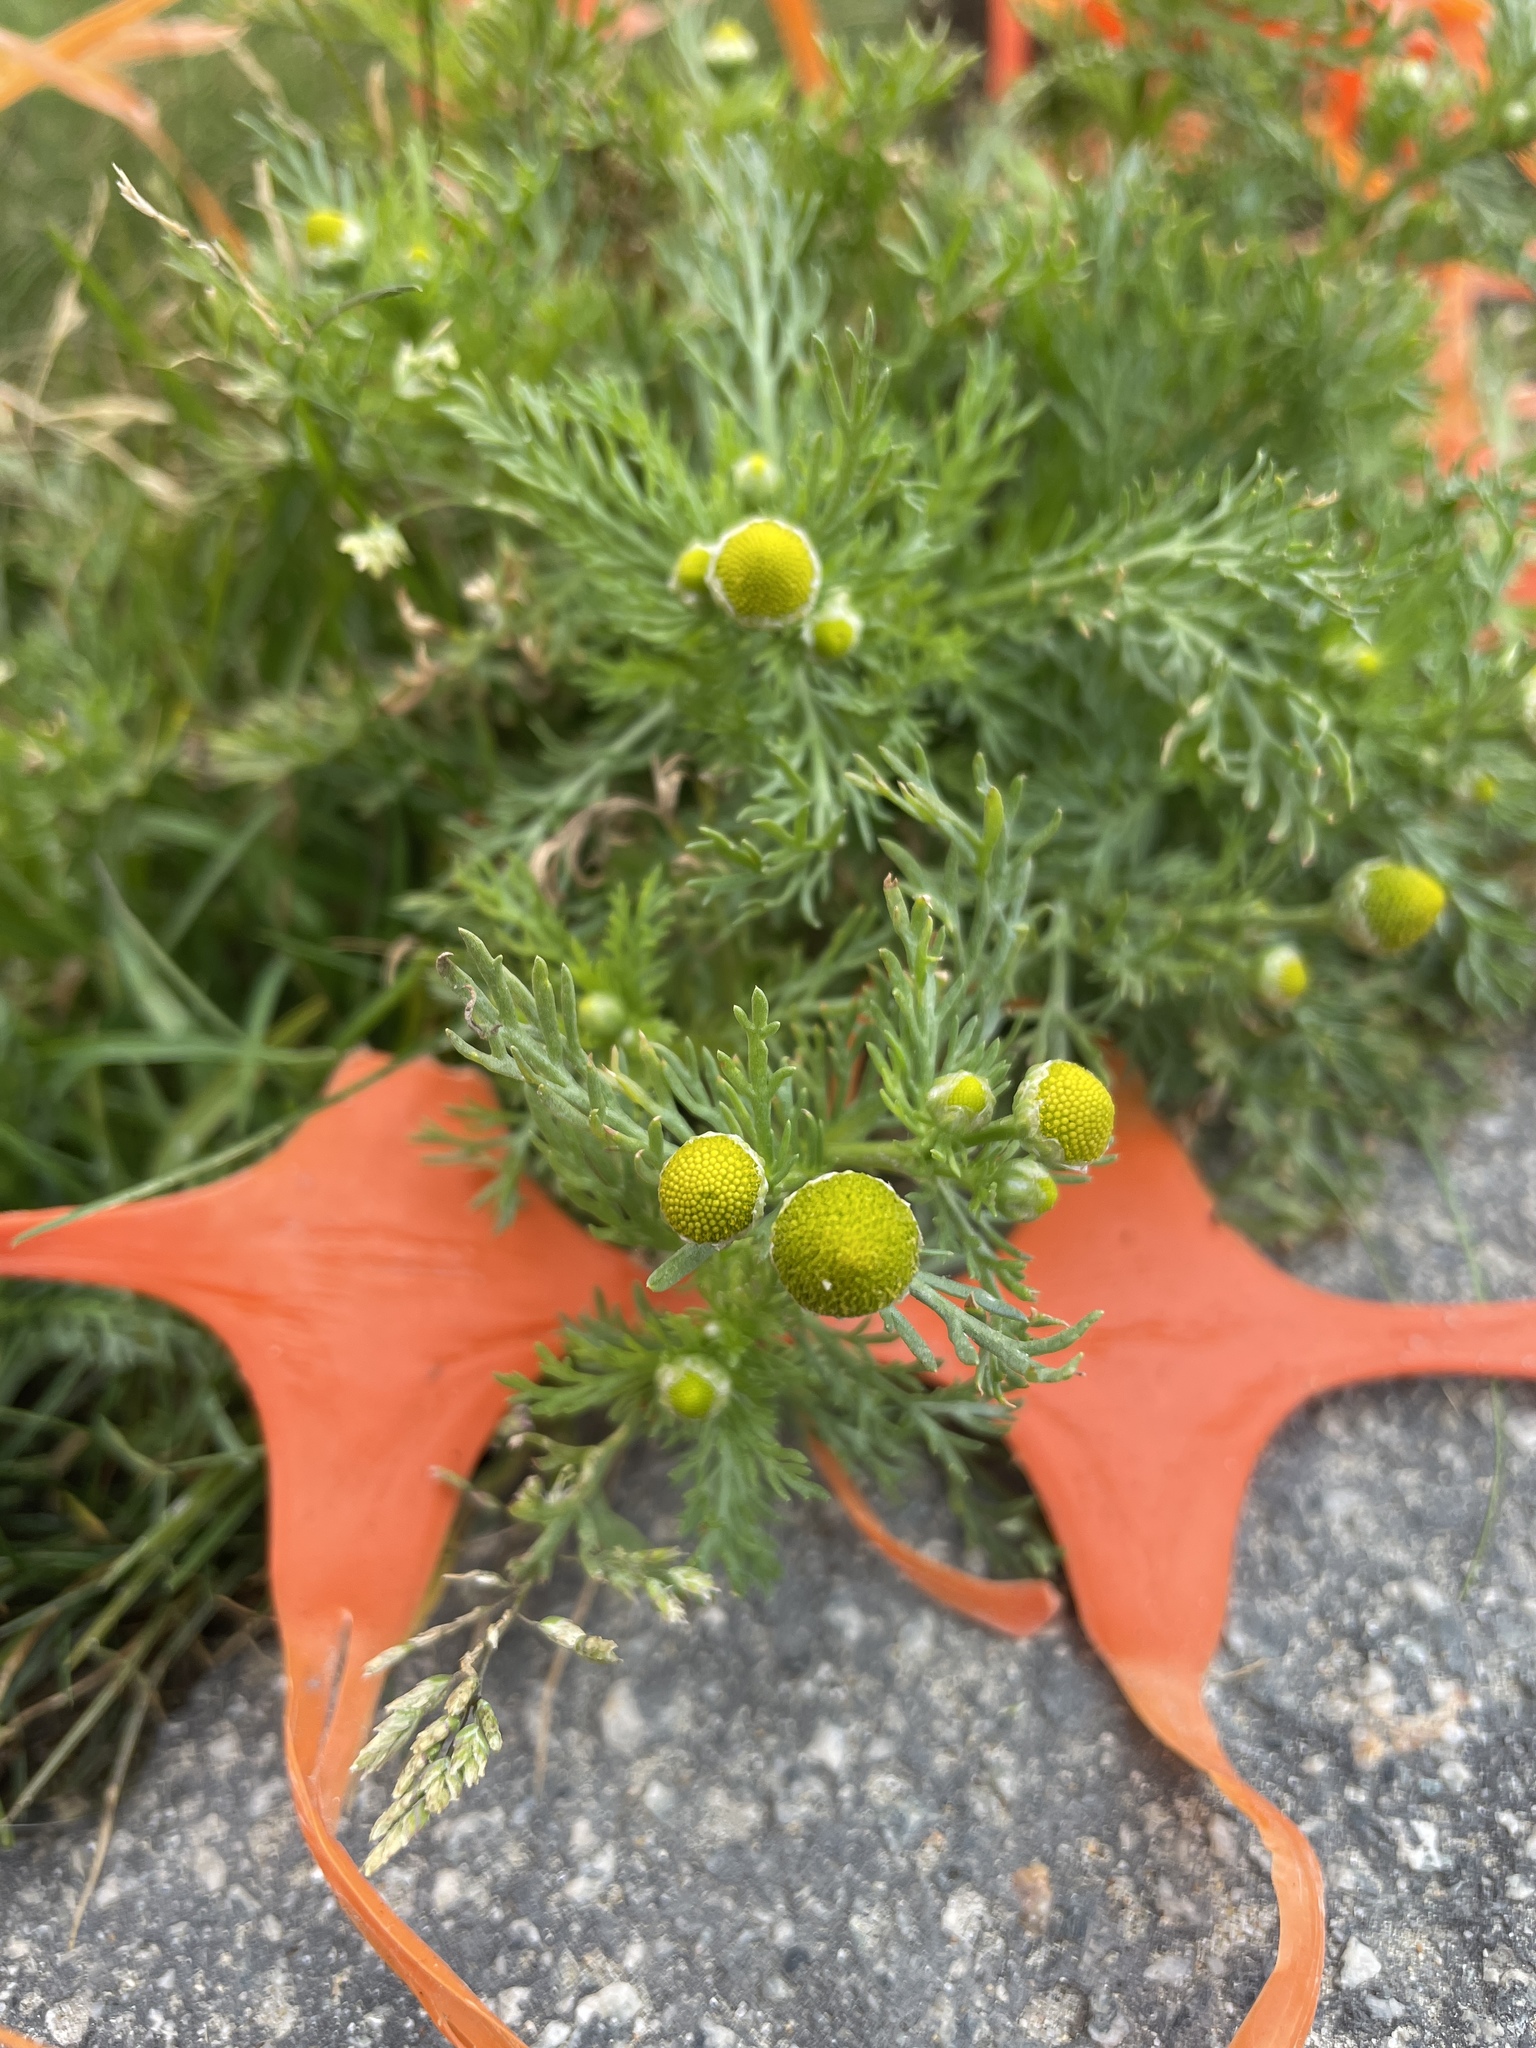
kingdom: Plantae
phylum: Tracheophyta
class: Magnoliopsida
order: Asterales
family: Asteraceae
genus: Matricaria
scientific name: Matricaria discoidea
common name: Disc mayweed
